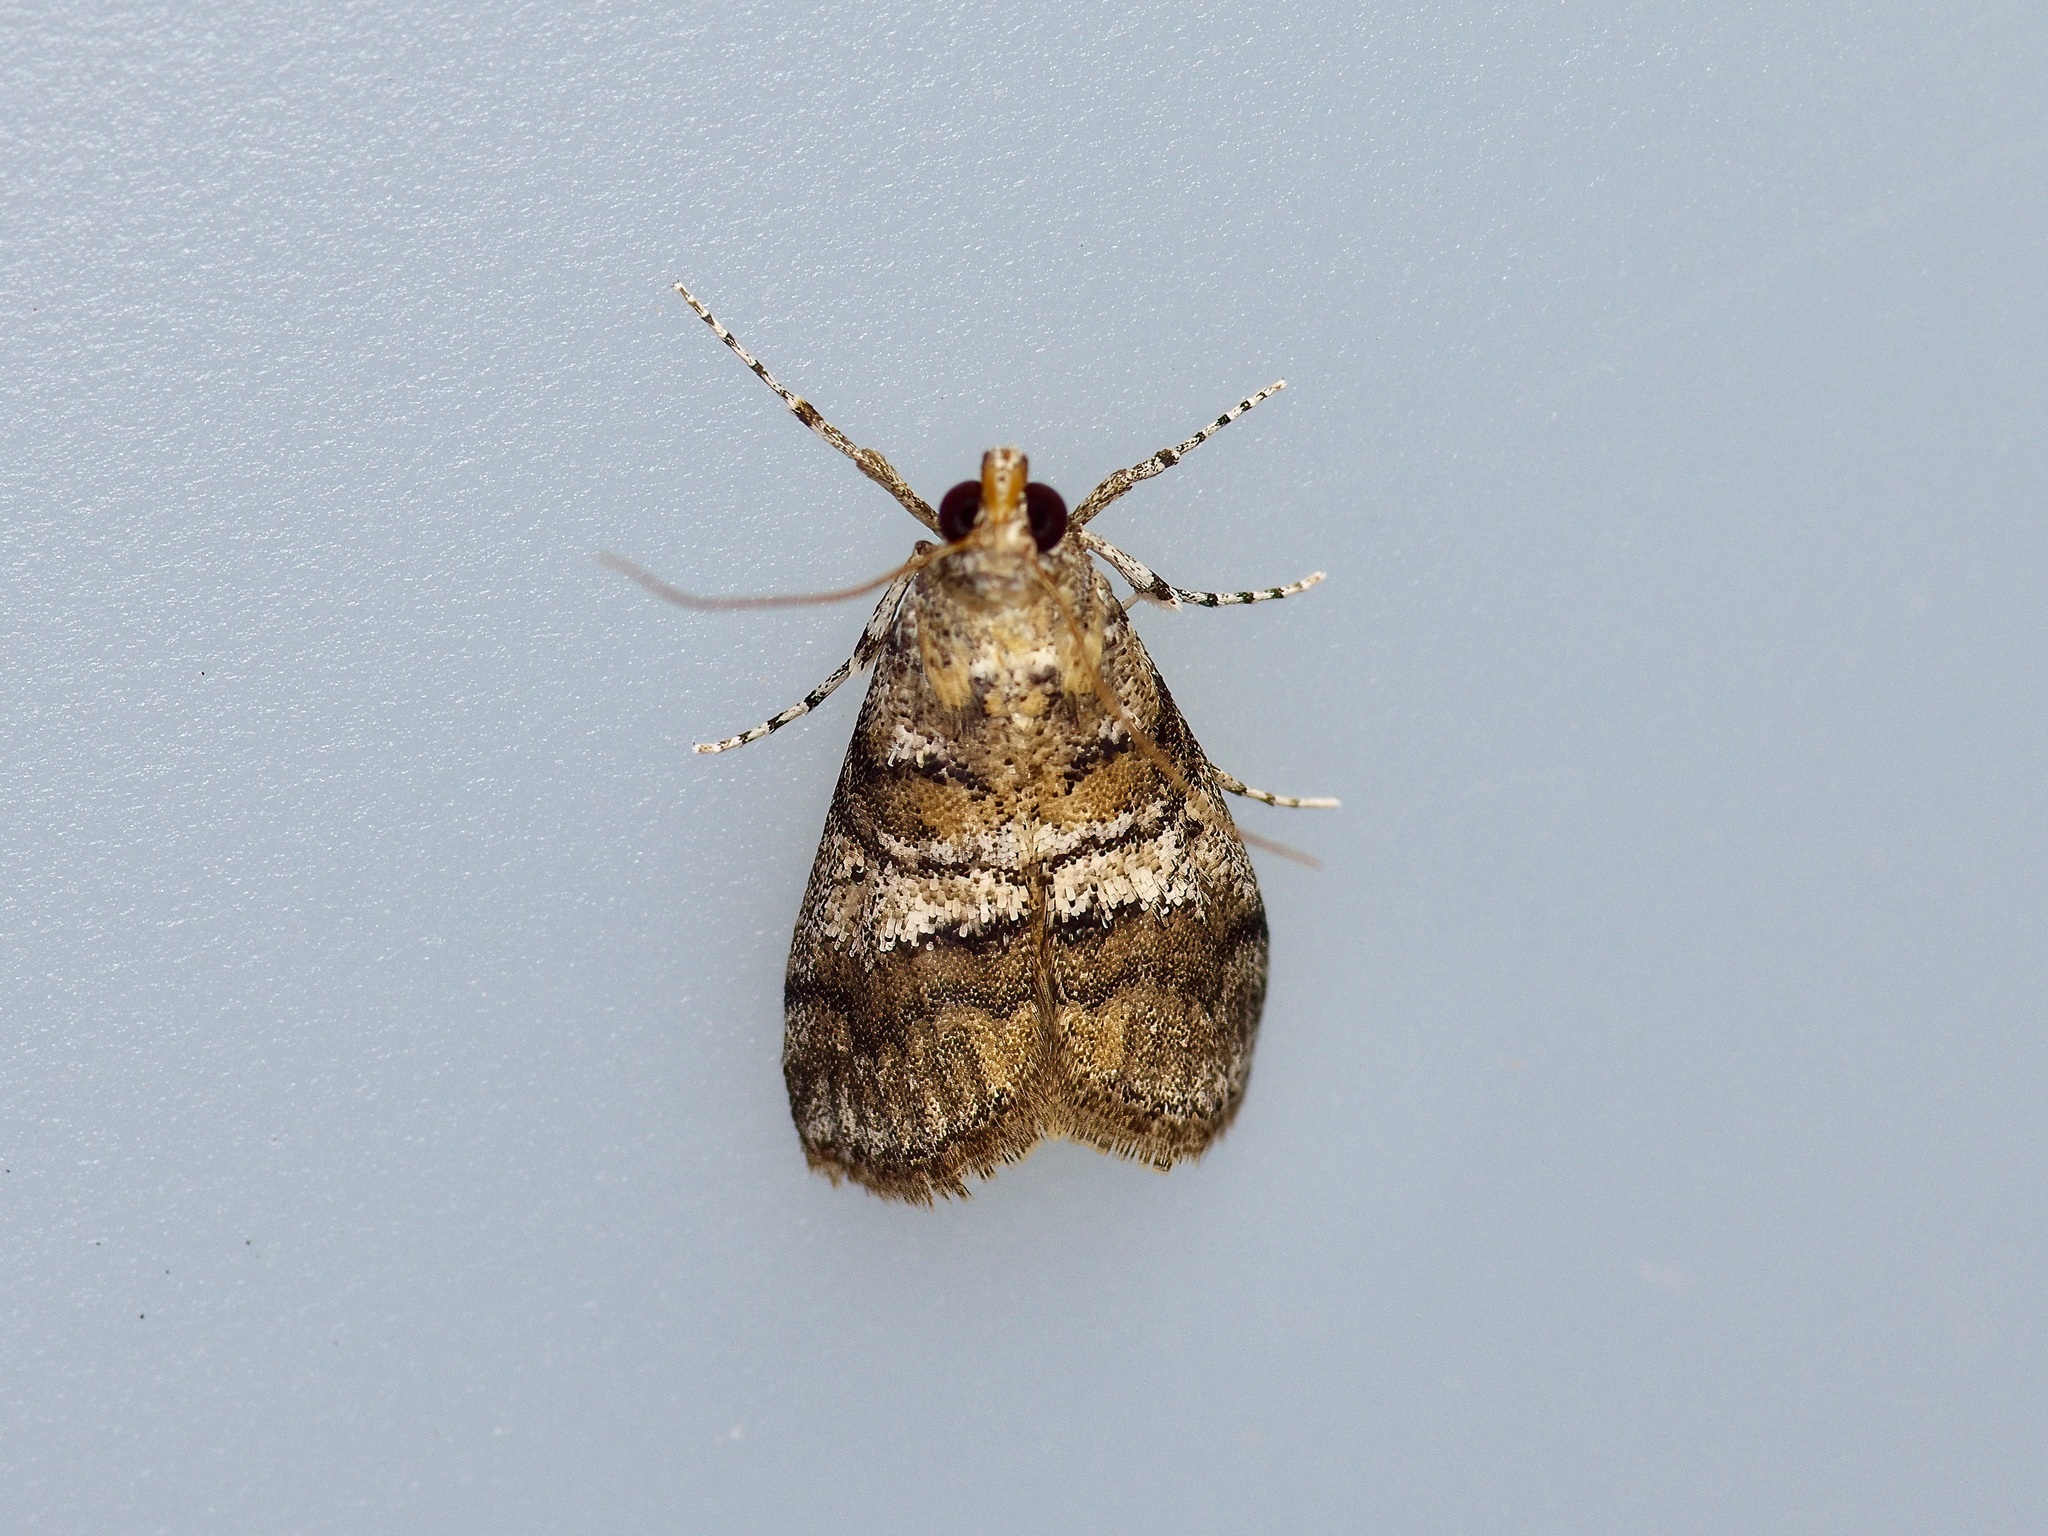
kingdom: Animalia
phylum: Arthropoda
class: Insecta
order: Lepidoptera
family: Pyralidae
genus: Pococera
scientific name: Pococera asperatella
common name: Maple webworm moth
